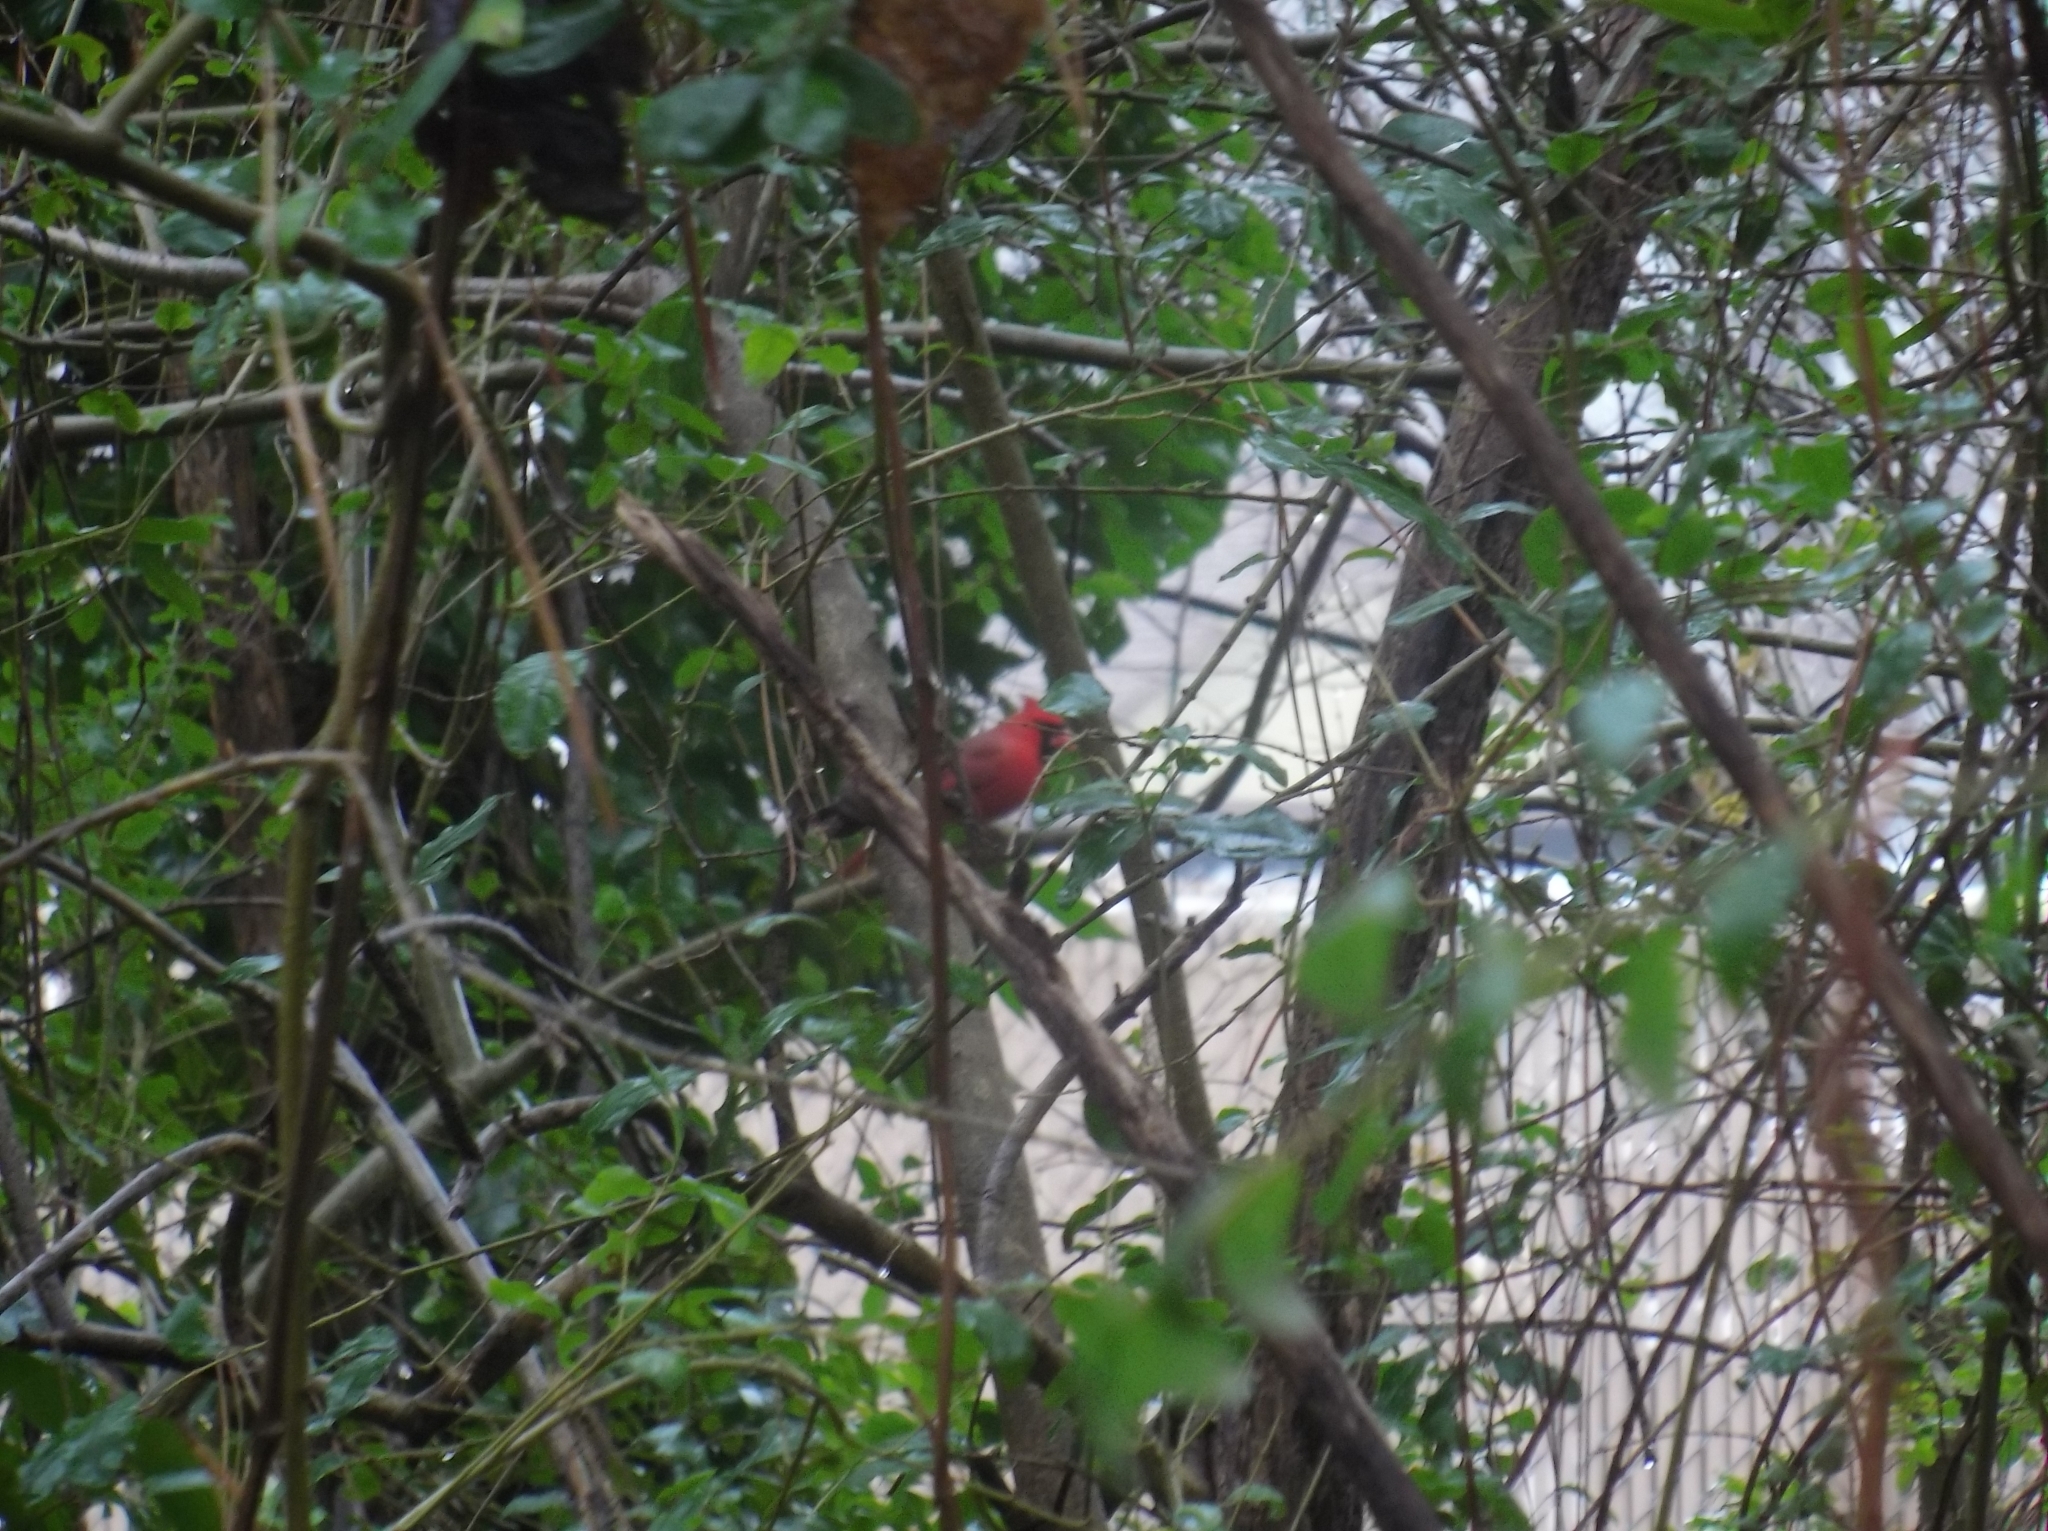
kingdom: Animalia
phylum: Chordata
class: Aves
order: Passeriformes
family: Cardinalidae
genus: Cardinalis
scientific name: Cardinalis cardinalis
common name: Northern cardinal
